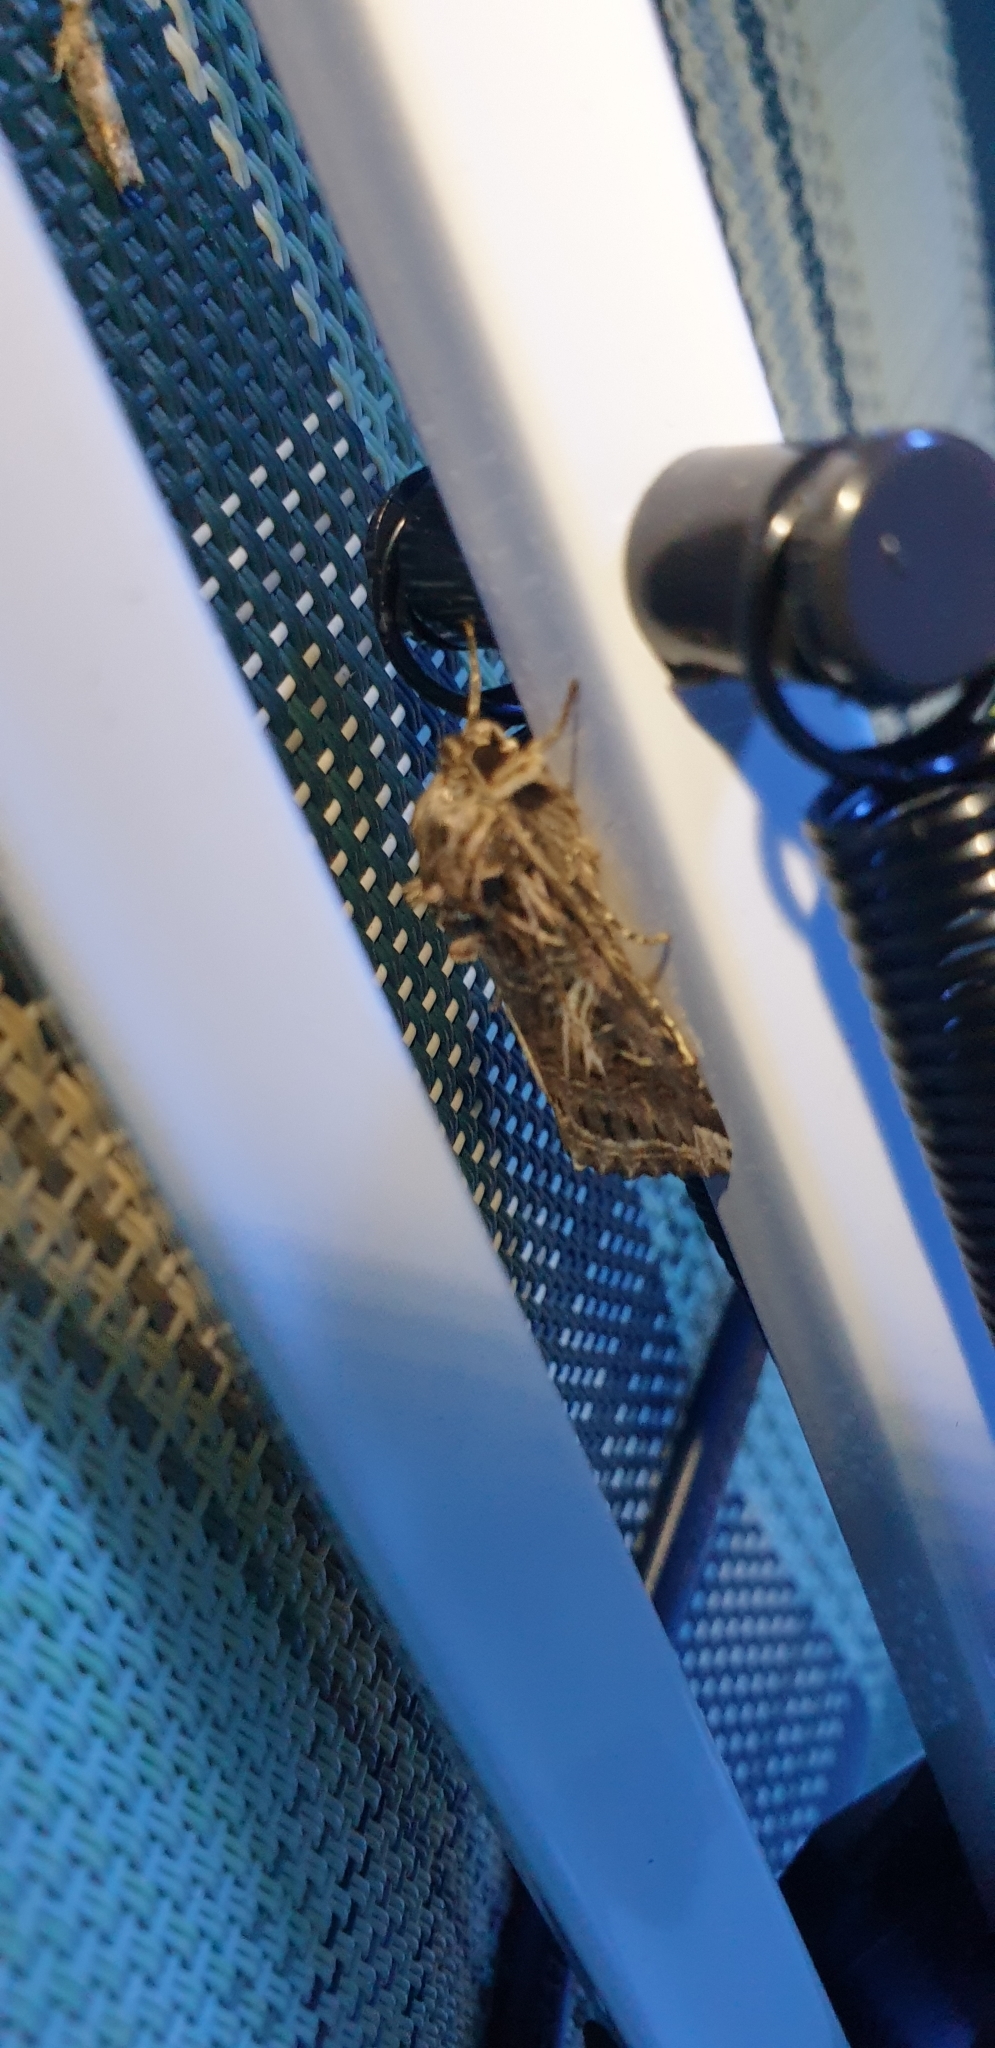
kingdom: Animalia
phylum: Arthropoda
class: Insecta
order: Lepidoptera
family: Noctuidae
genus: Spodoptera
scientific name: Spodoptera litura
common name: Asian cotton leafworm
